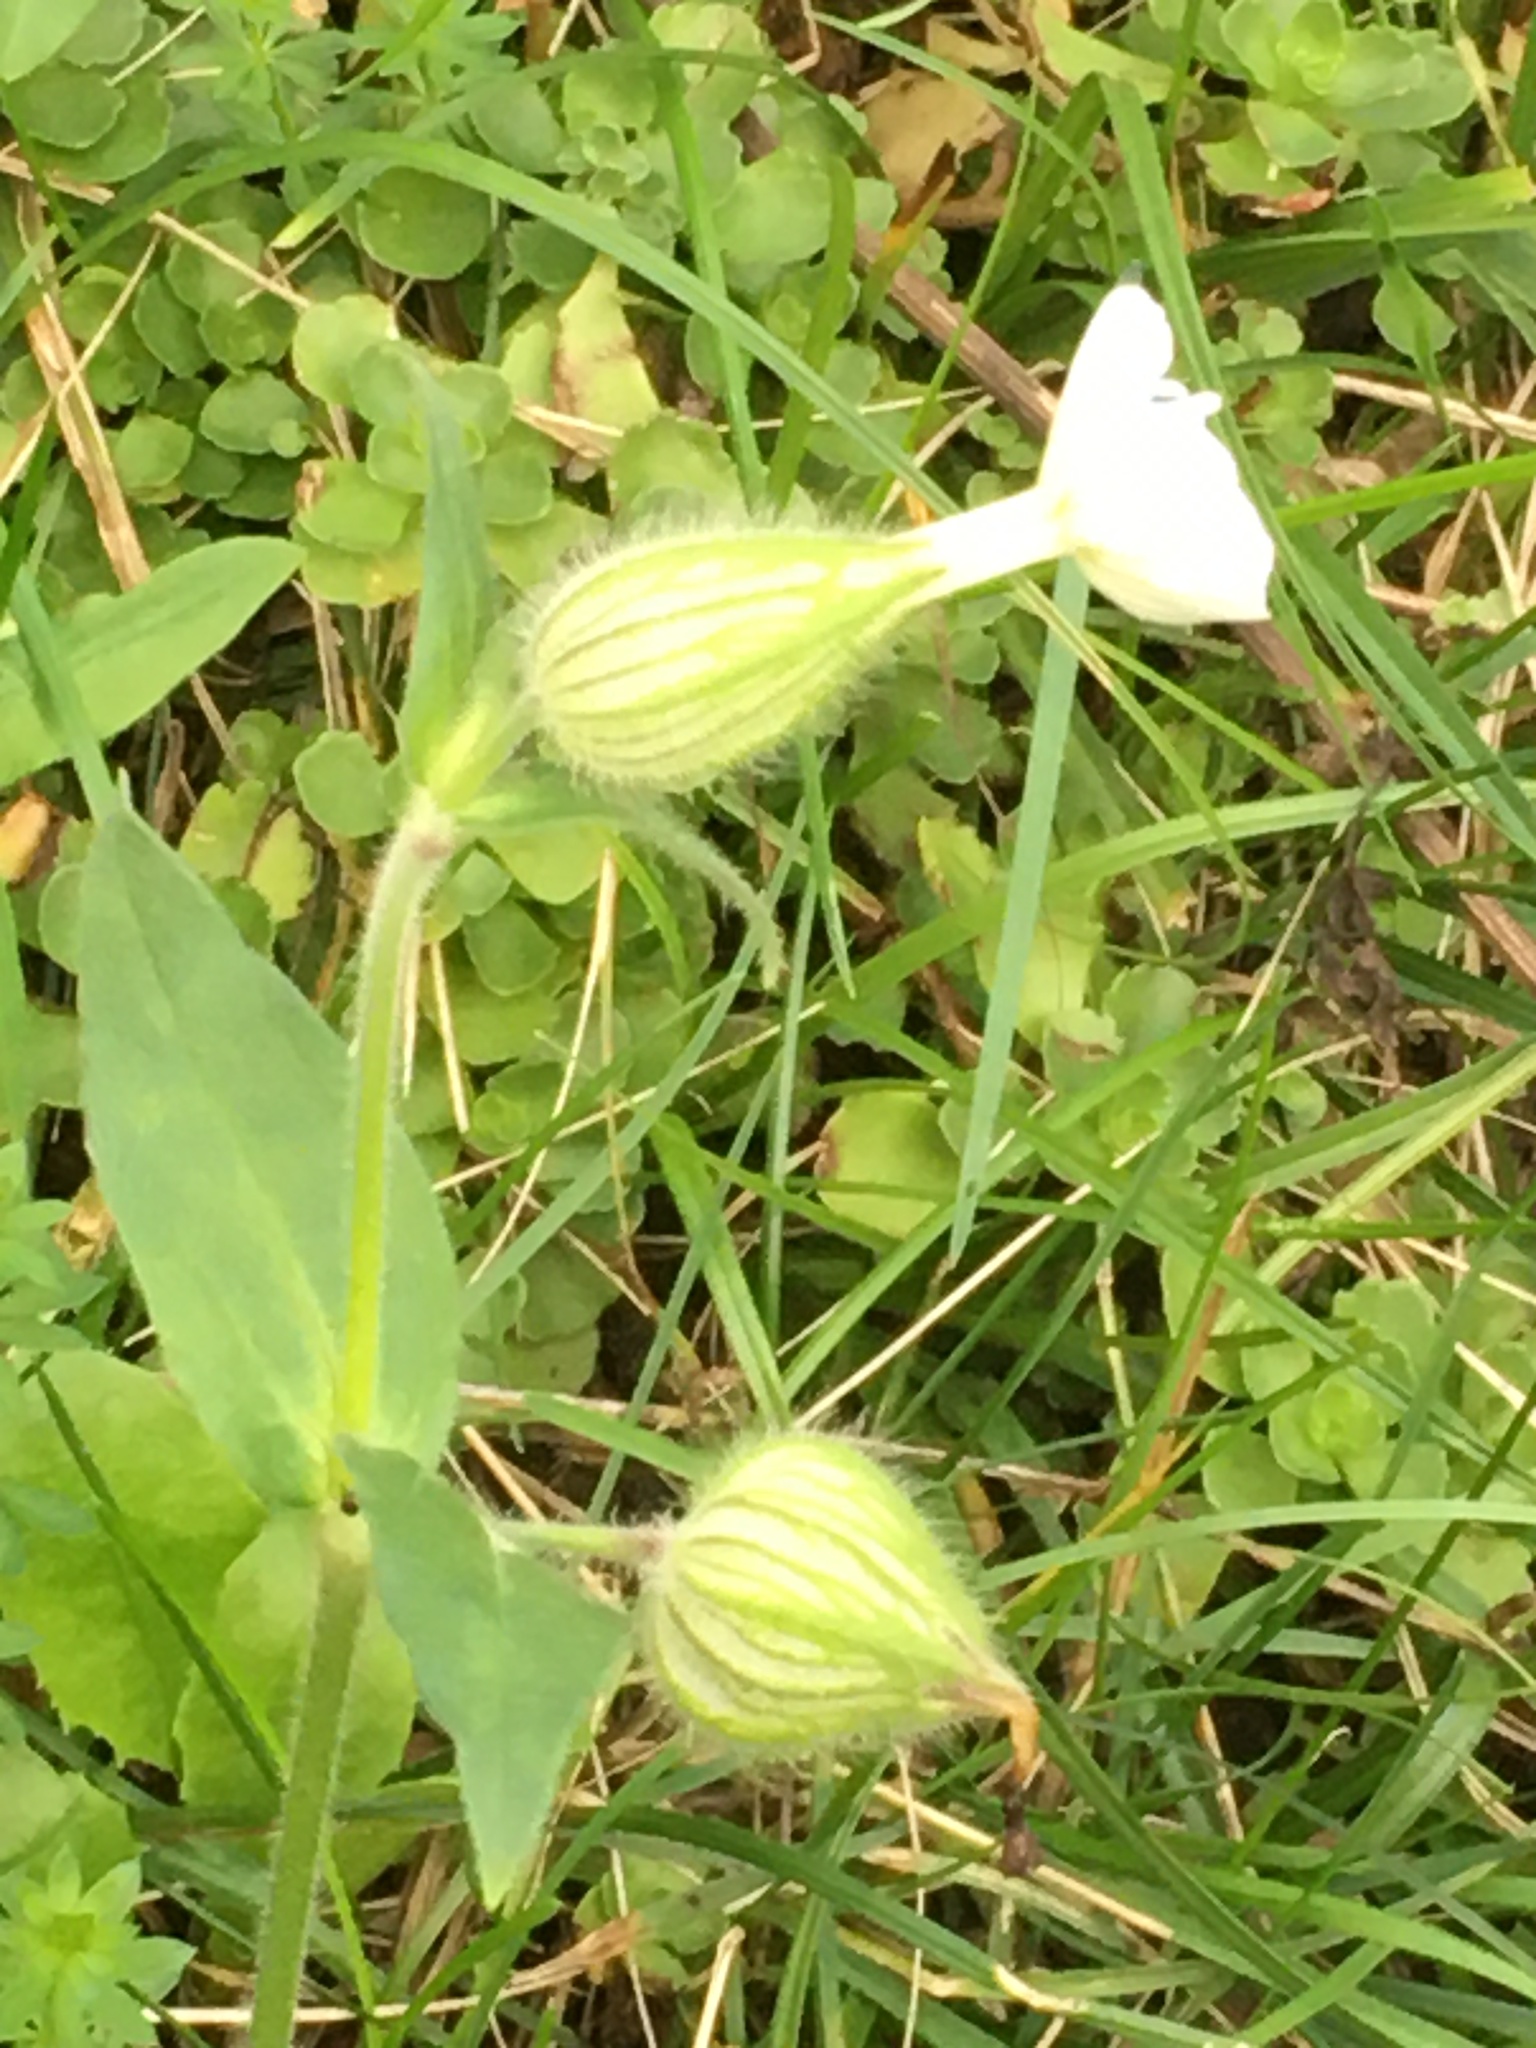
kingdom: Plantae
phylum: Tracheophyta
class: Magnoliopsida
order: Caryophyllales
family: Caryophyllaceae
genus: Silene
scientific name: Silene latifolia
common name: White campion
